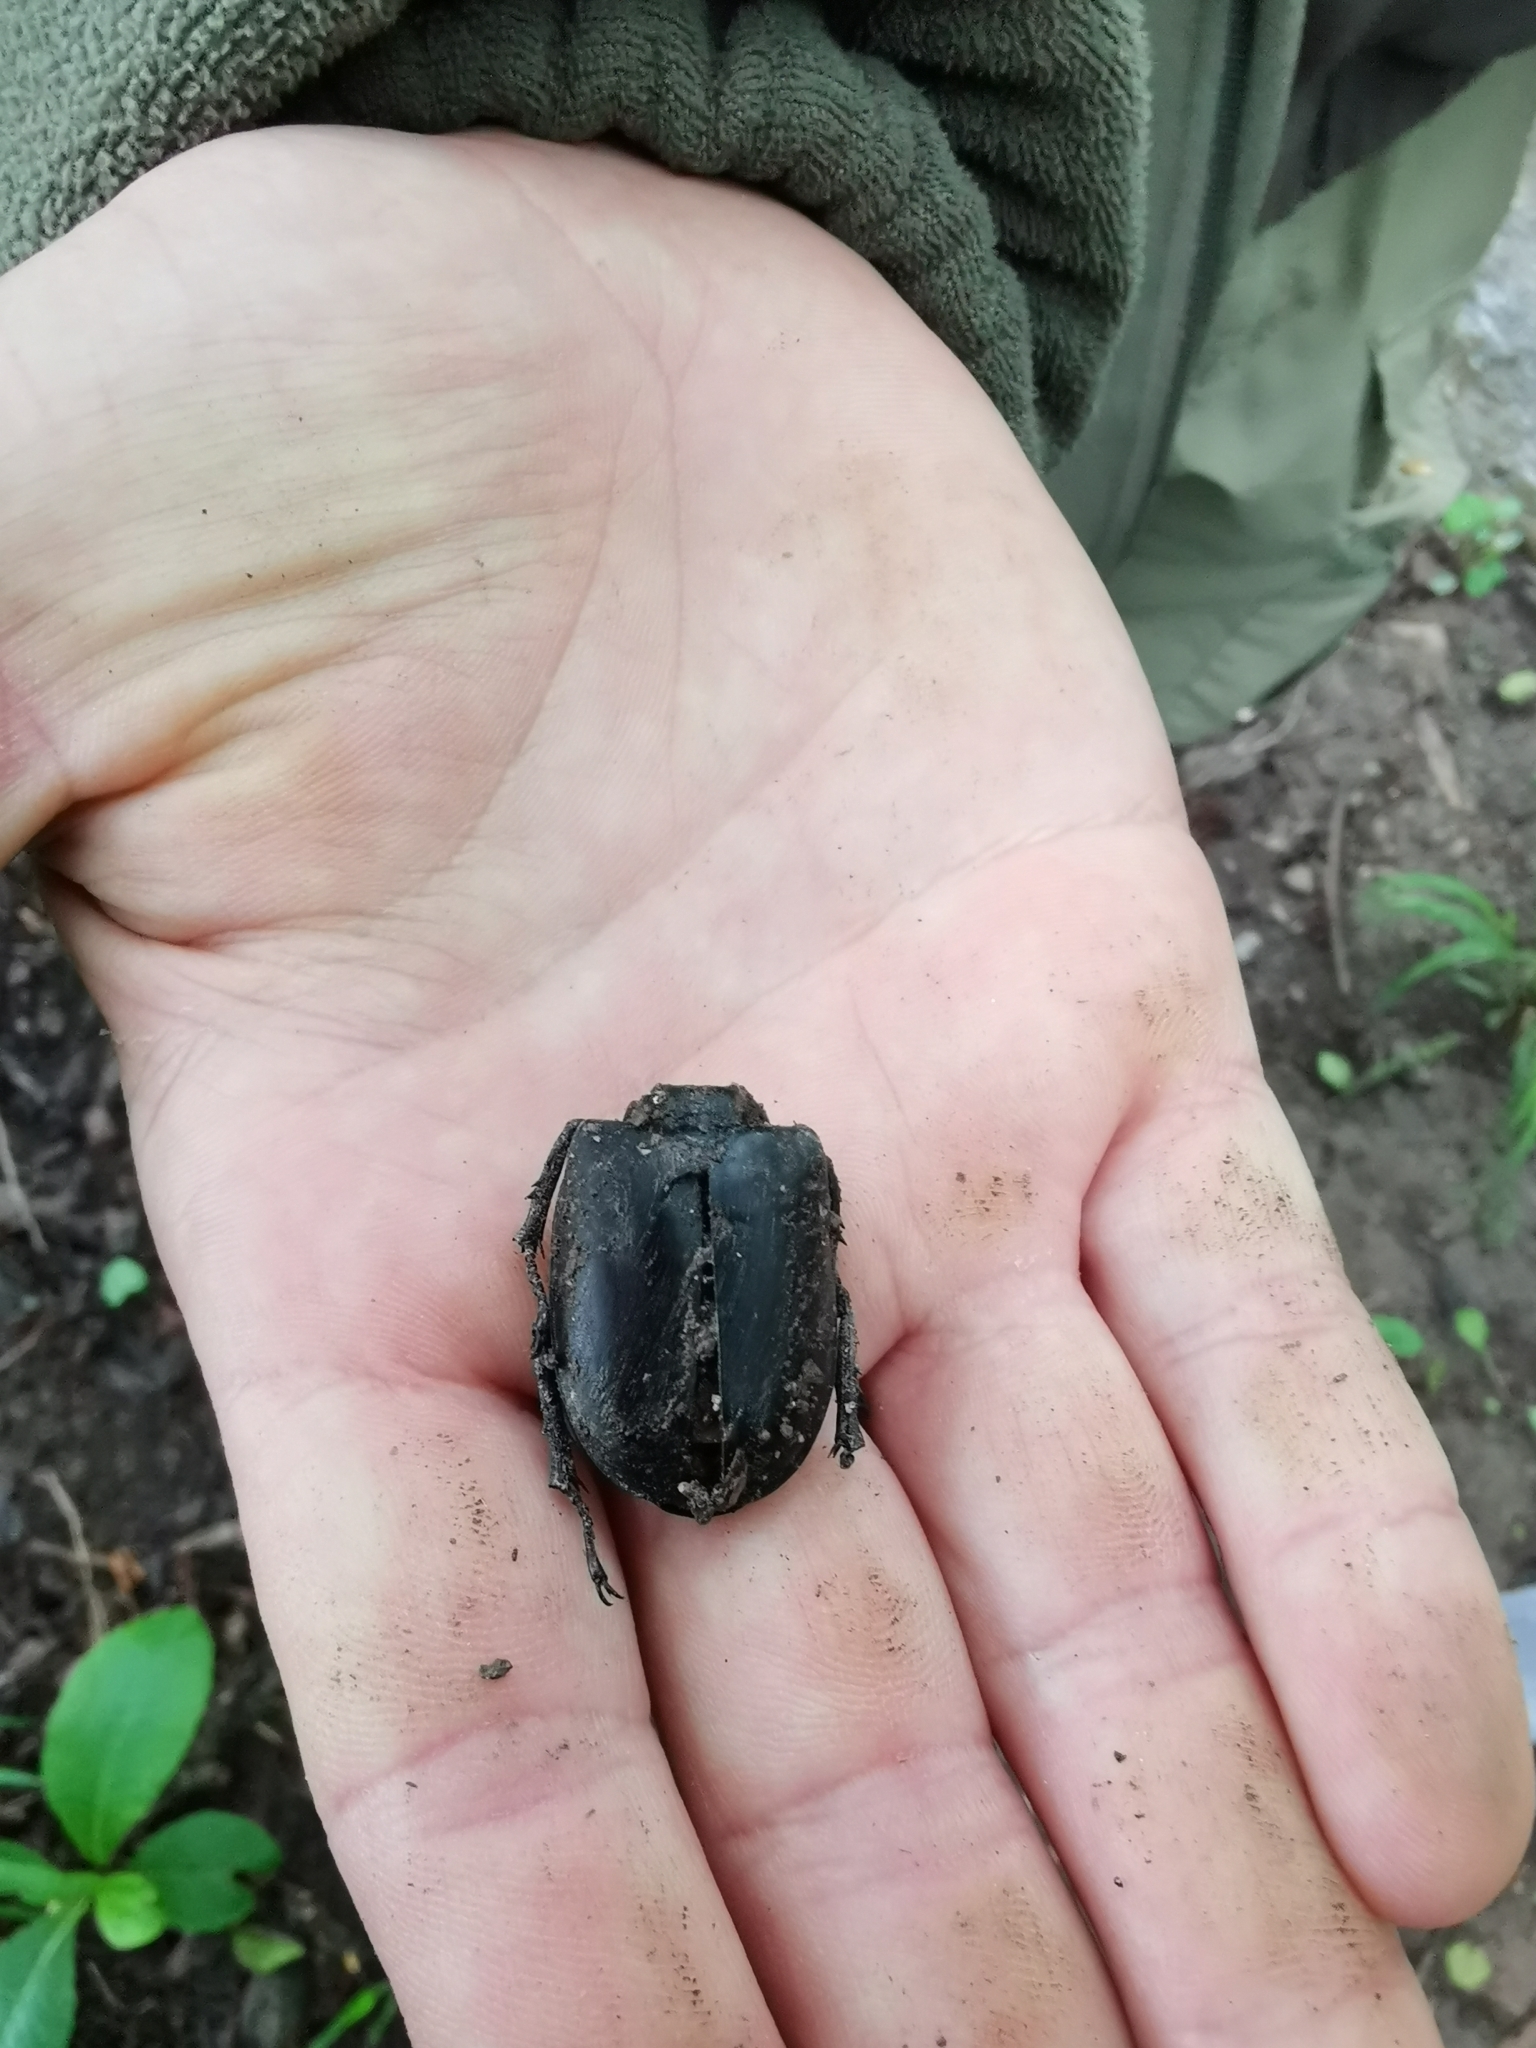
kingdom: Animalia
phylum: Arthropoda
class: Insecta
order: Coleoptera
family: Lucanidae
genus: Lucanus
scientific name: Lucanus cervus
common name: Stag beetle
